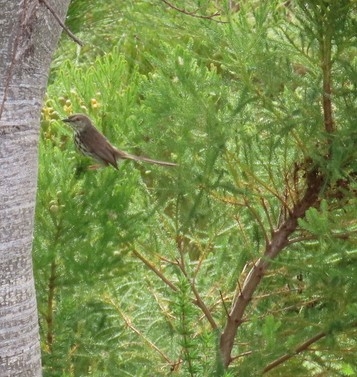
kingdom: Animalia
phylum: Chordata
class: Aves
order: Passeriformes
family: Cisticolidae
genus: Prinia
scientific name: Prinia maculosa
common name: Karoo prinia
